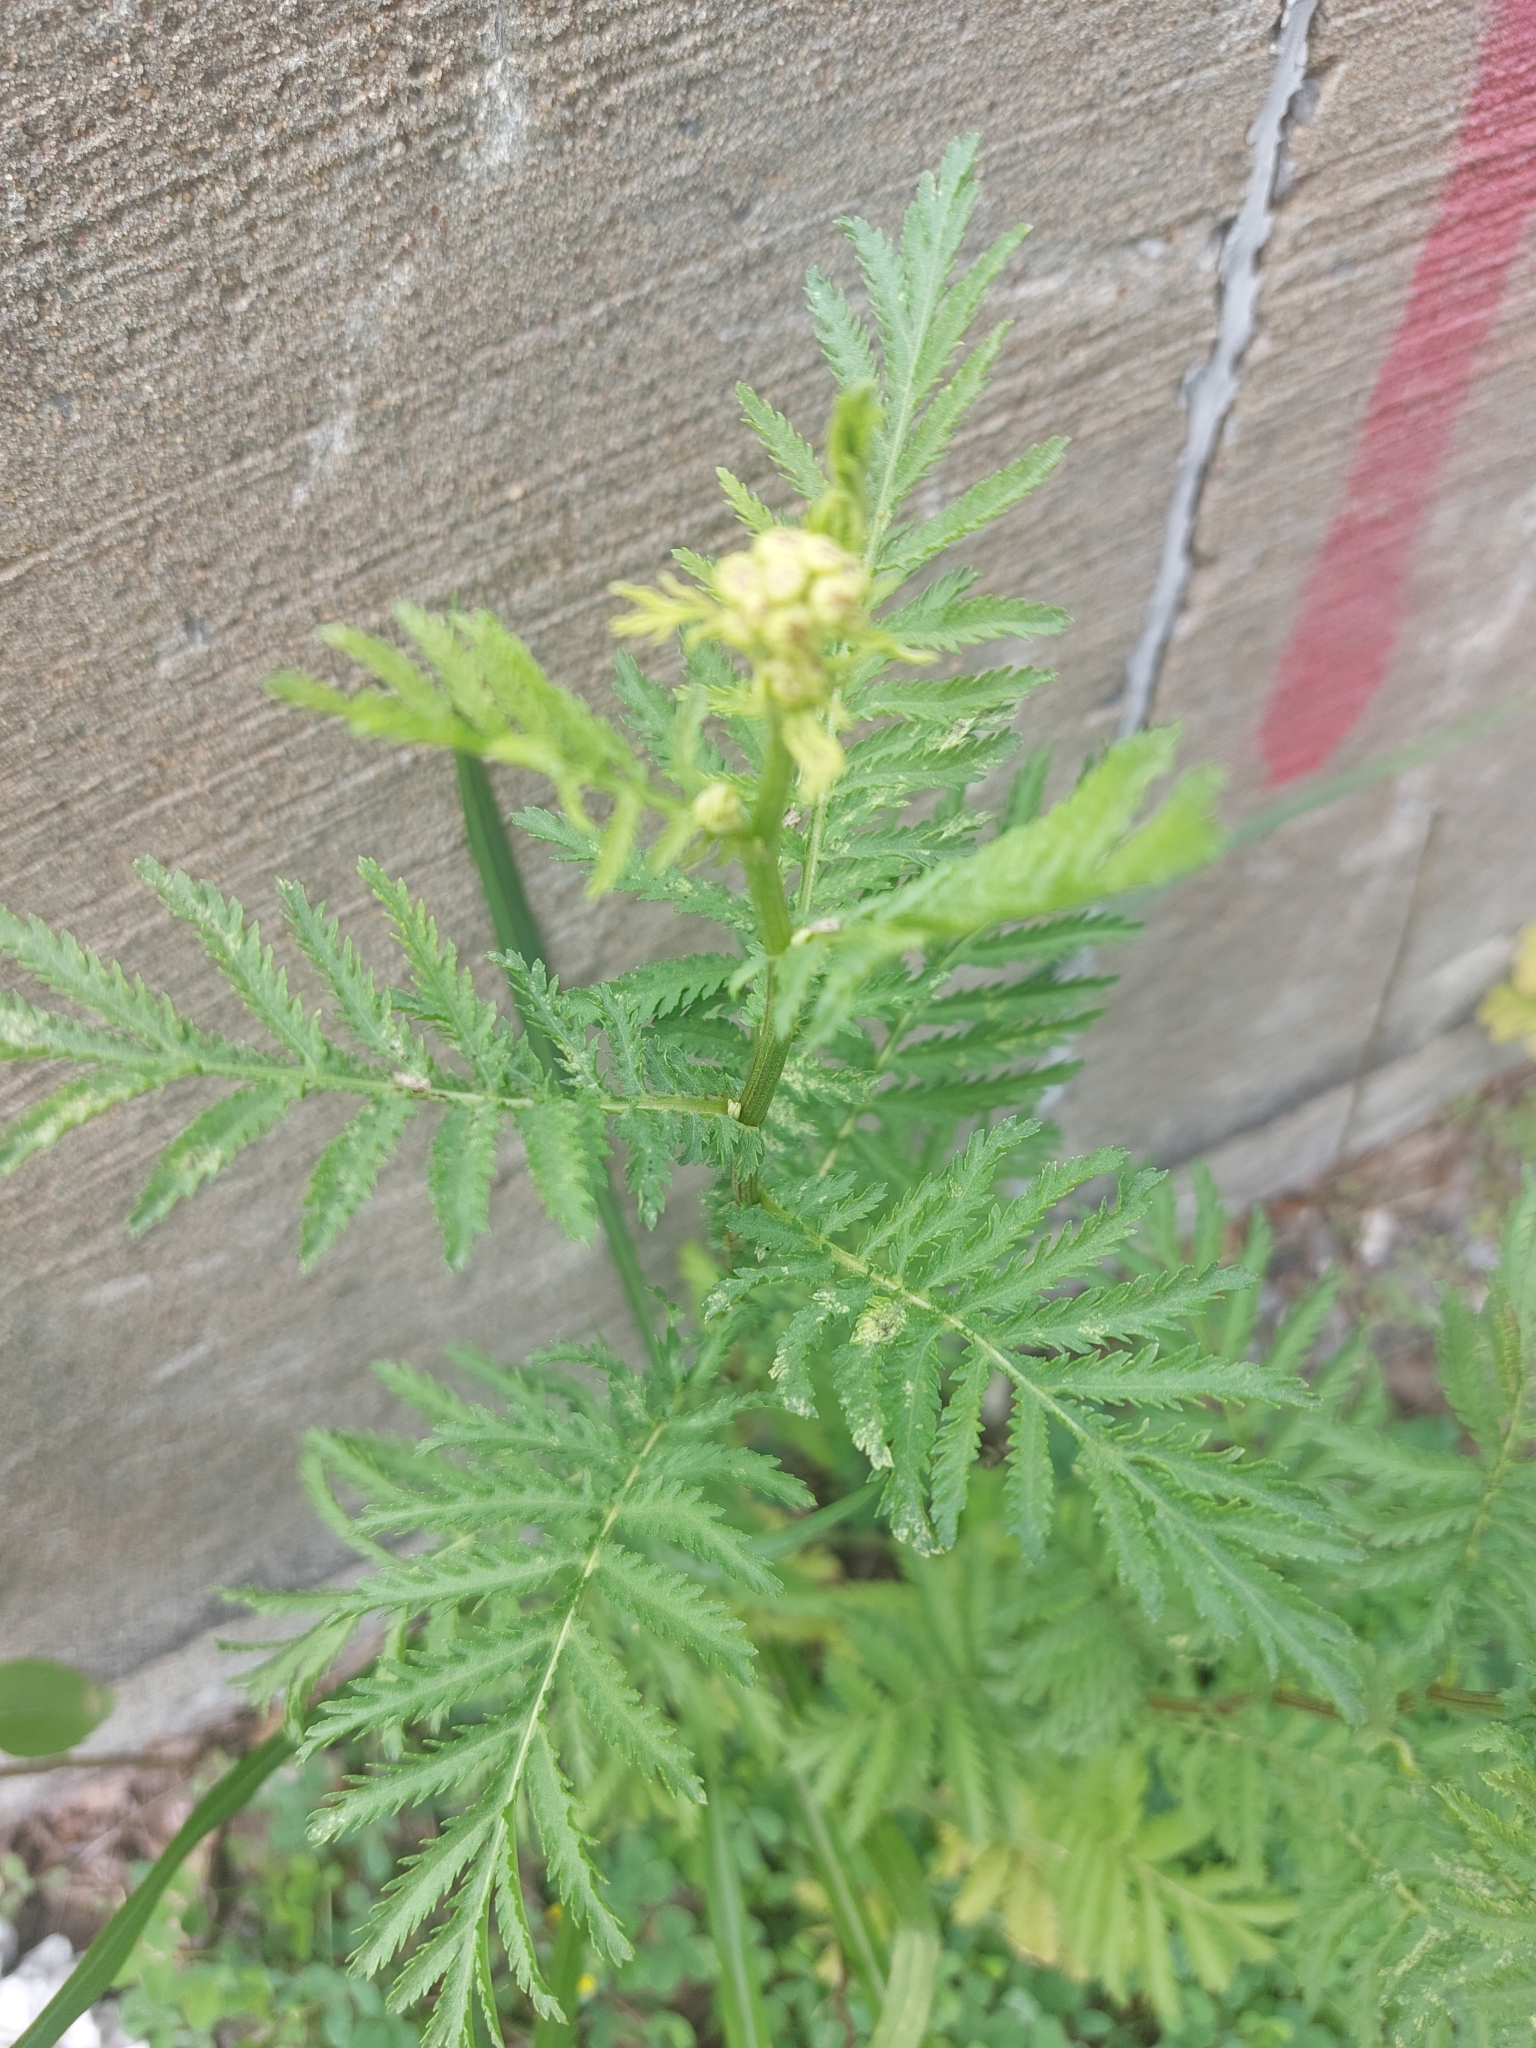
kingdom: Plantae
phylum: Tracheophyta
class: Magnoliopsida
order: Asterales
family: Asteraceae
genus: Tanacetum
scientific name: Tanacetum vulgare
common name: Common tansy
